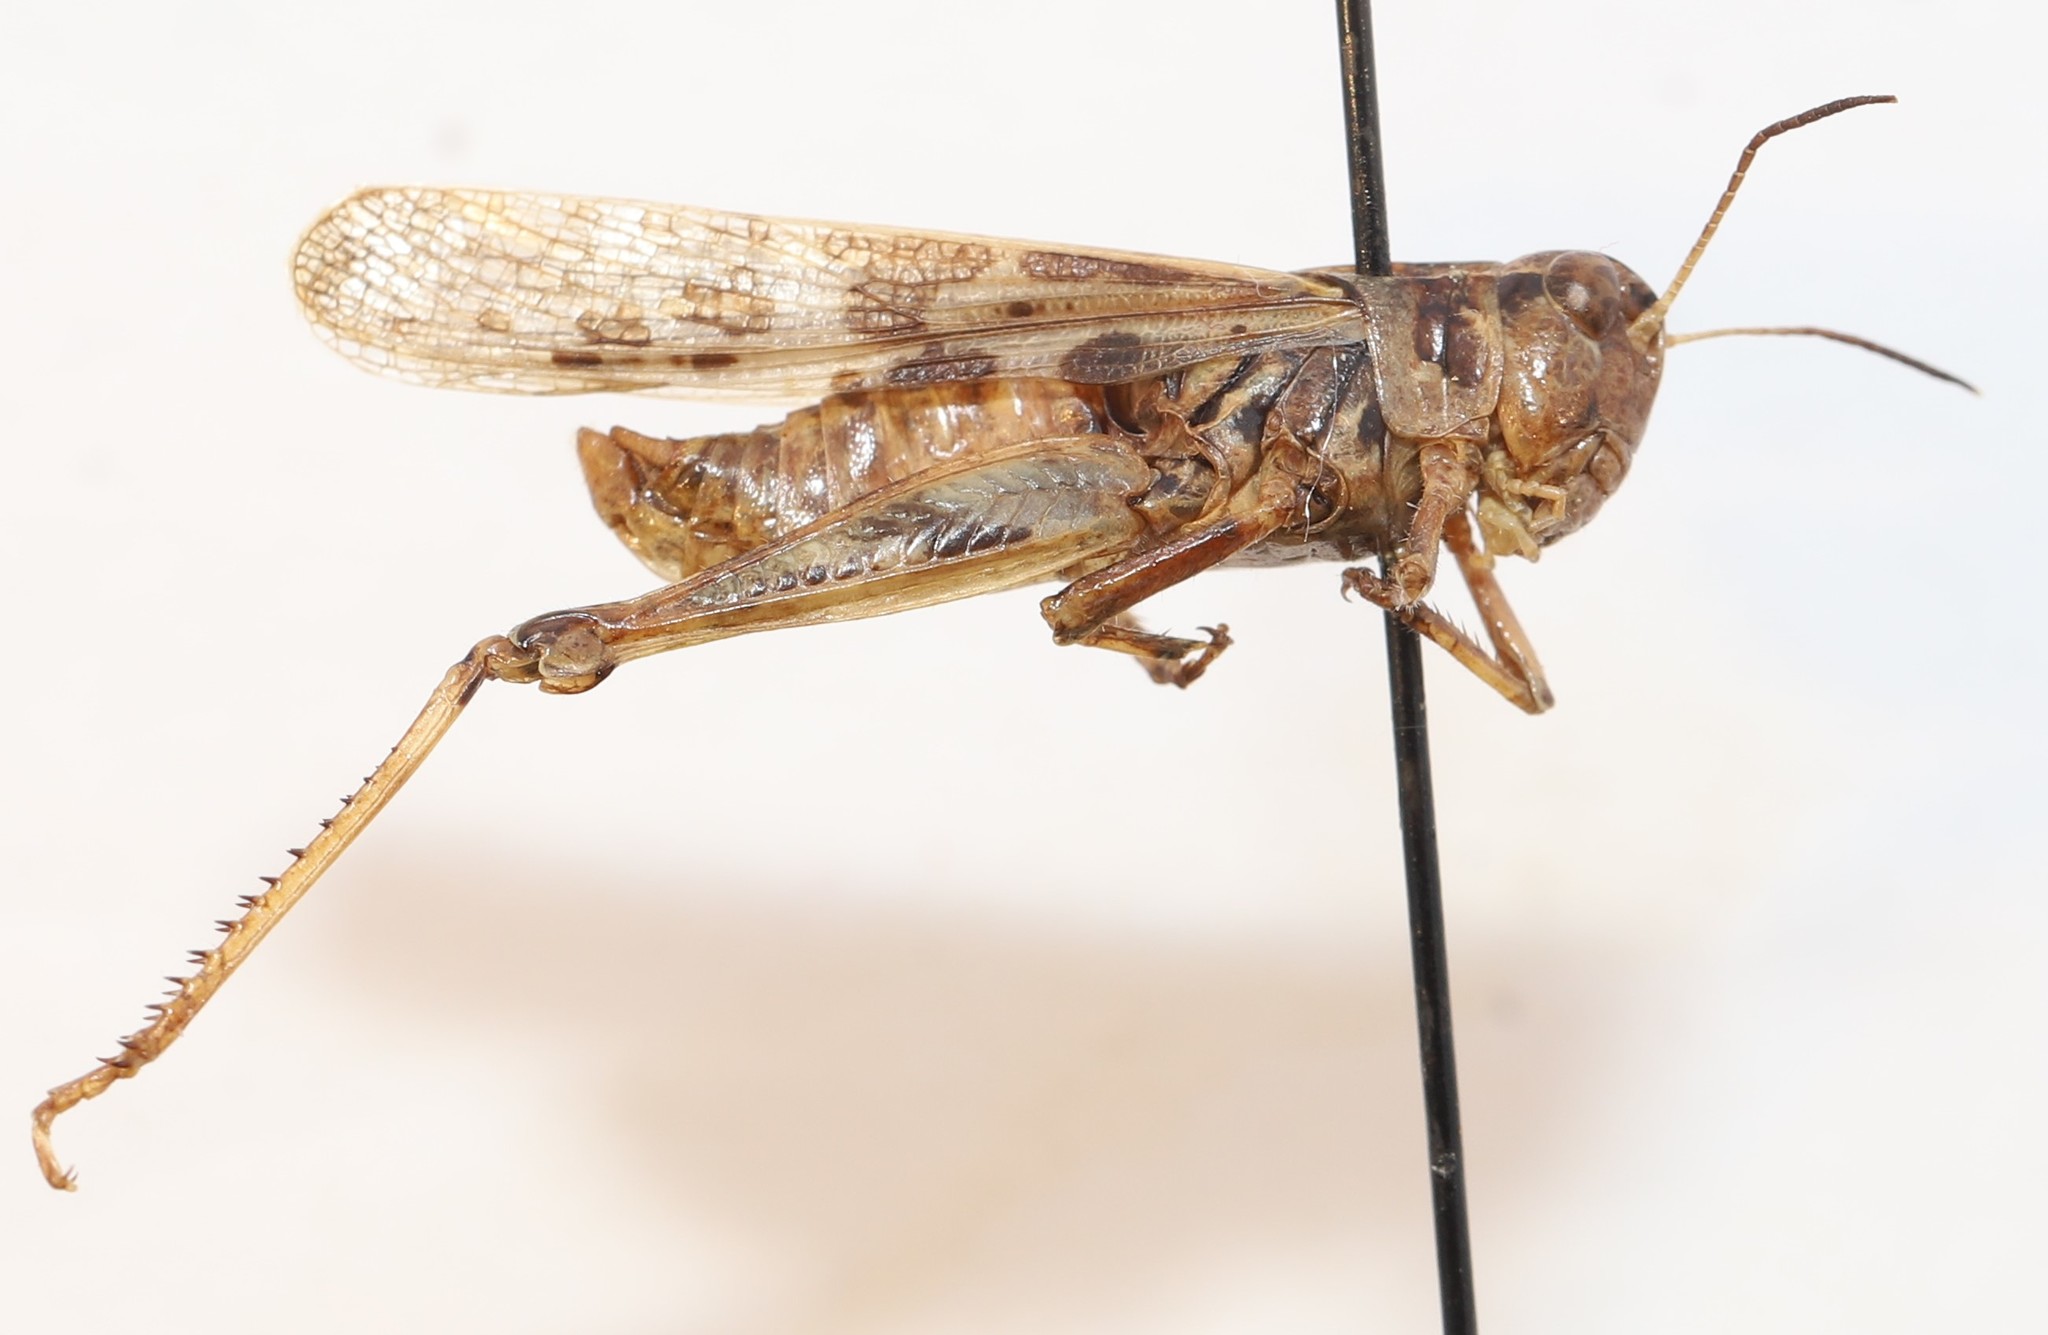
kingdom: Animalia
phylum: Arthropoda
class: Insecta
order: Orthoptera
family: Acrididae
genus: Camnula
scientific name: Camnula pellucida
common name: Clear-winged grasshopper
